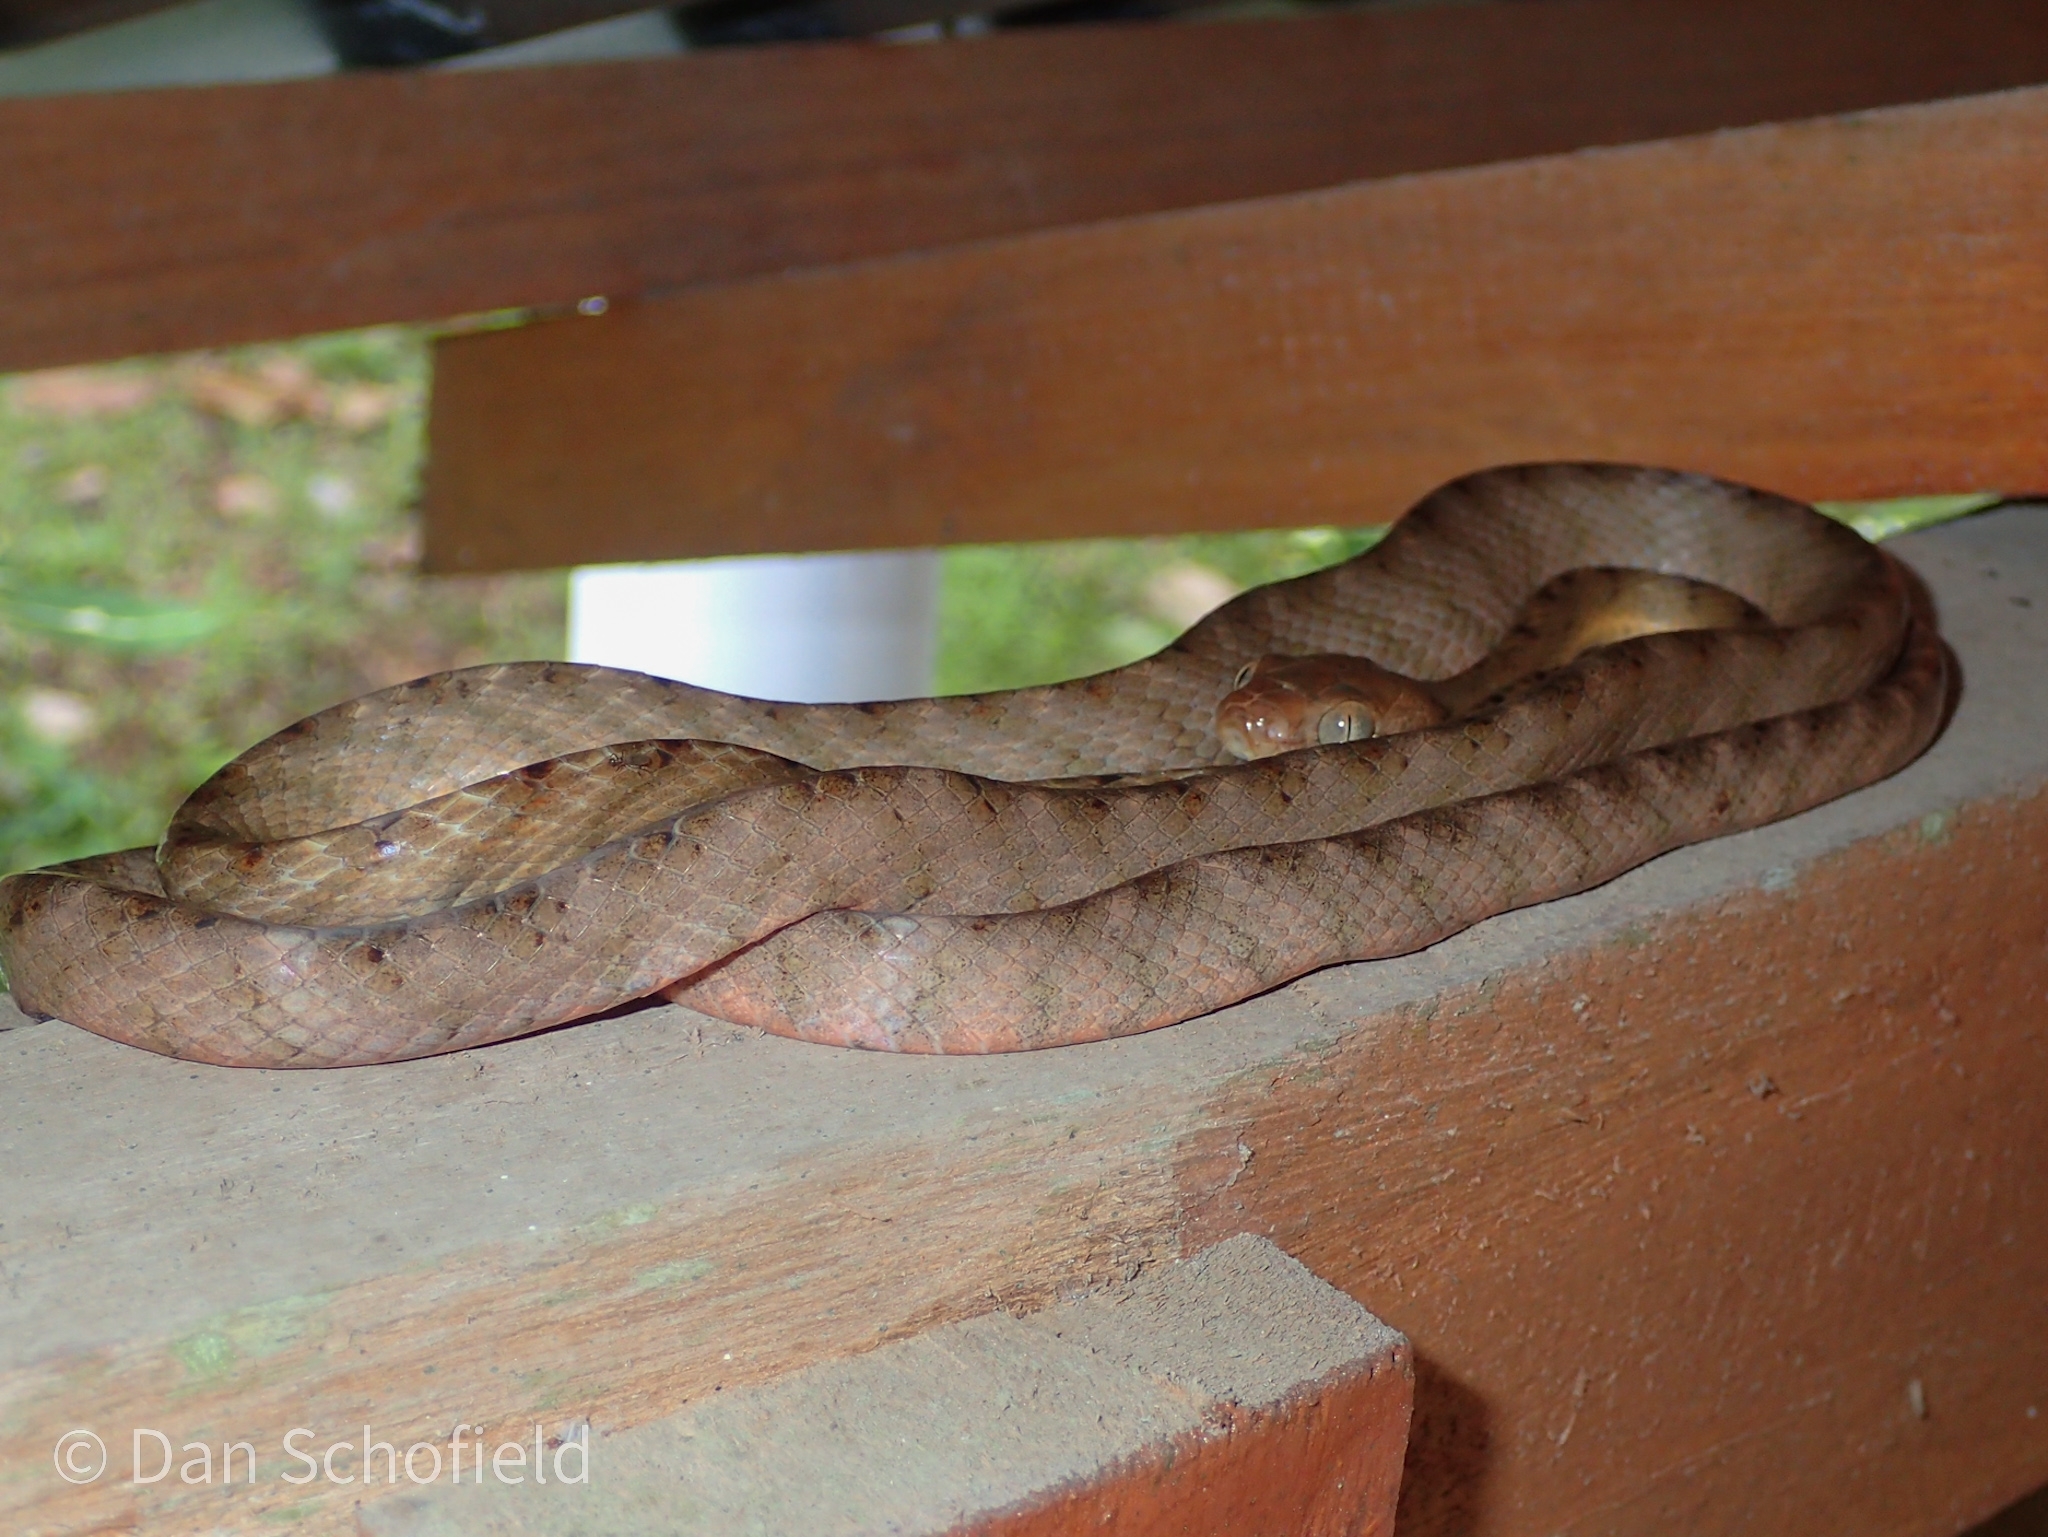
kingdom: Animalia
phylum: Chordata
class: Squamata
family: Colubridae
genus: Boiga
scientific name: Boiga irregularis
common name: Brown tree snake
